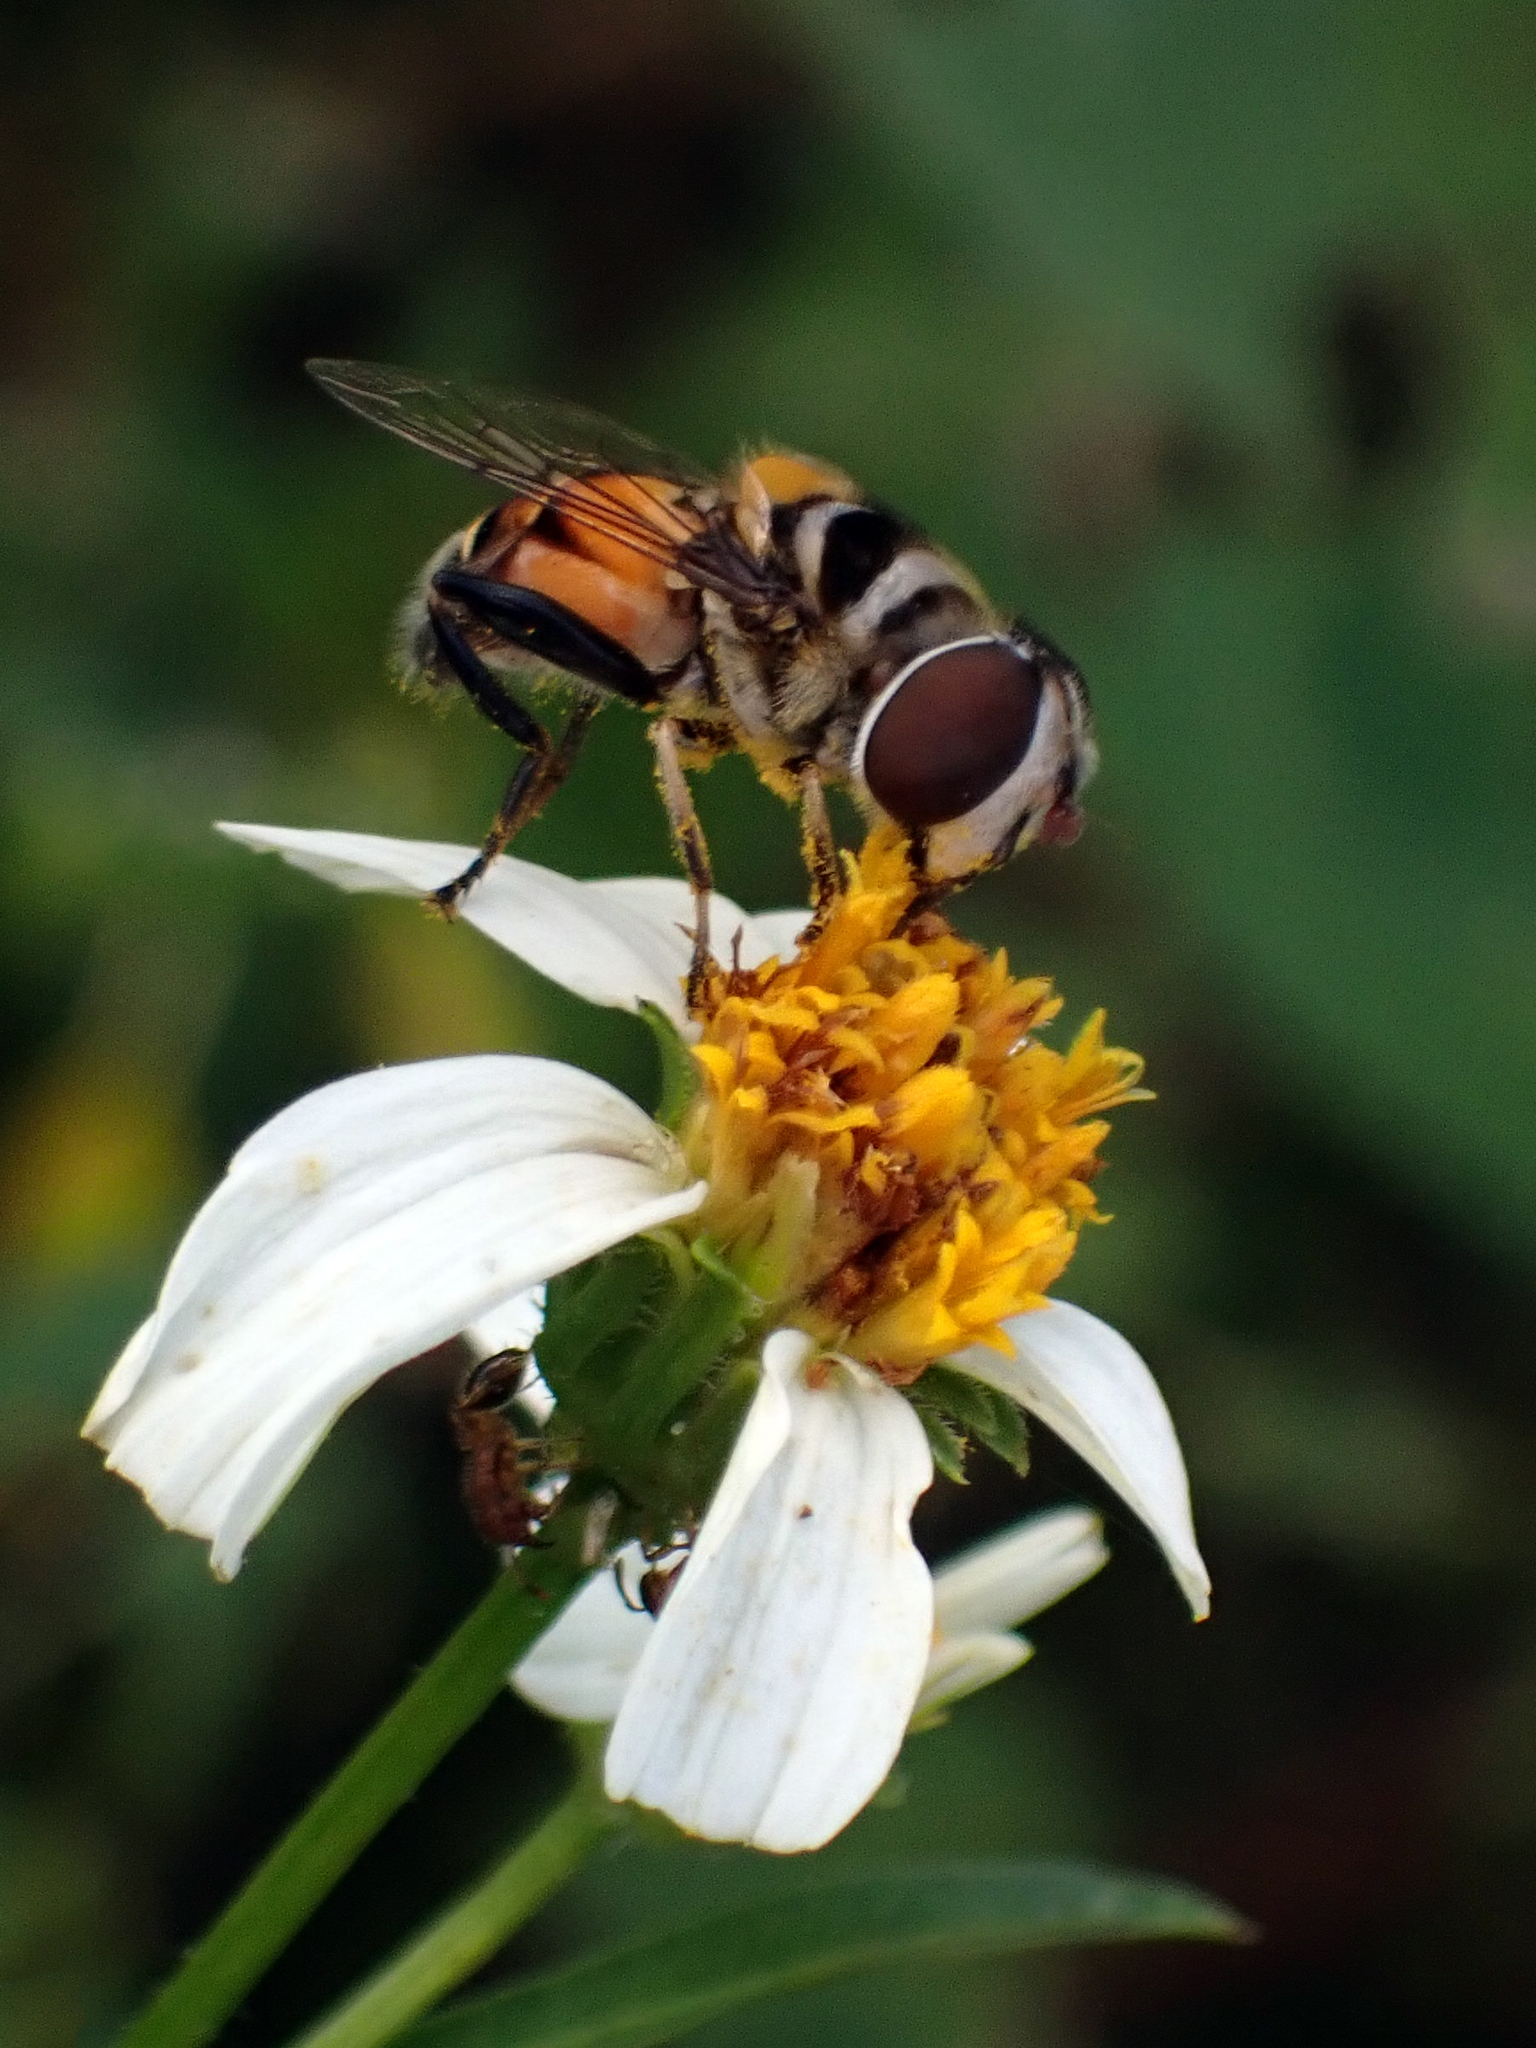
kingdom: Animalia
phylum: Arthropoda
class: Insecta
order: Diptera
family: Syrphidae
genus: Palpada
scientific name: Palpada agrorum
